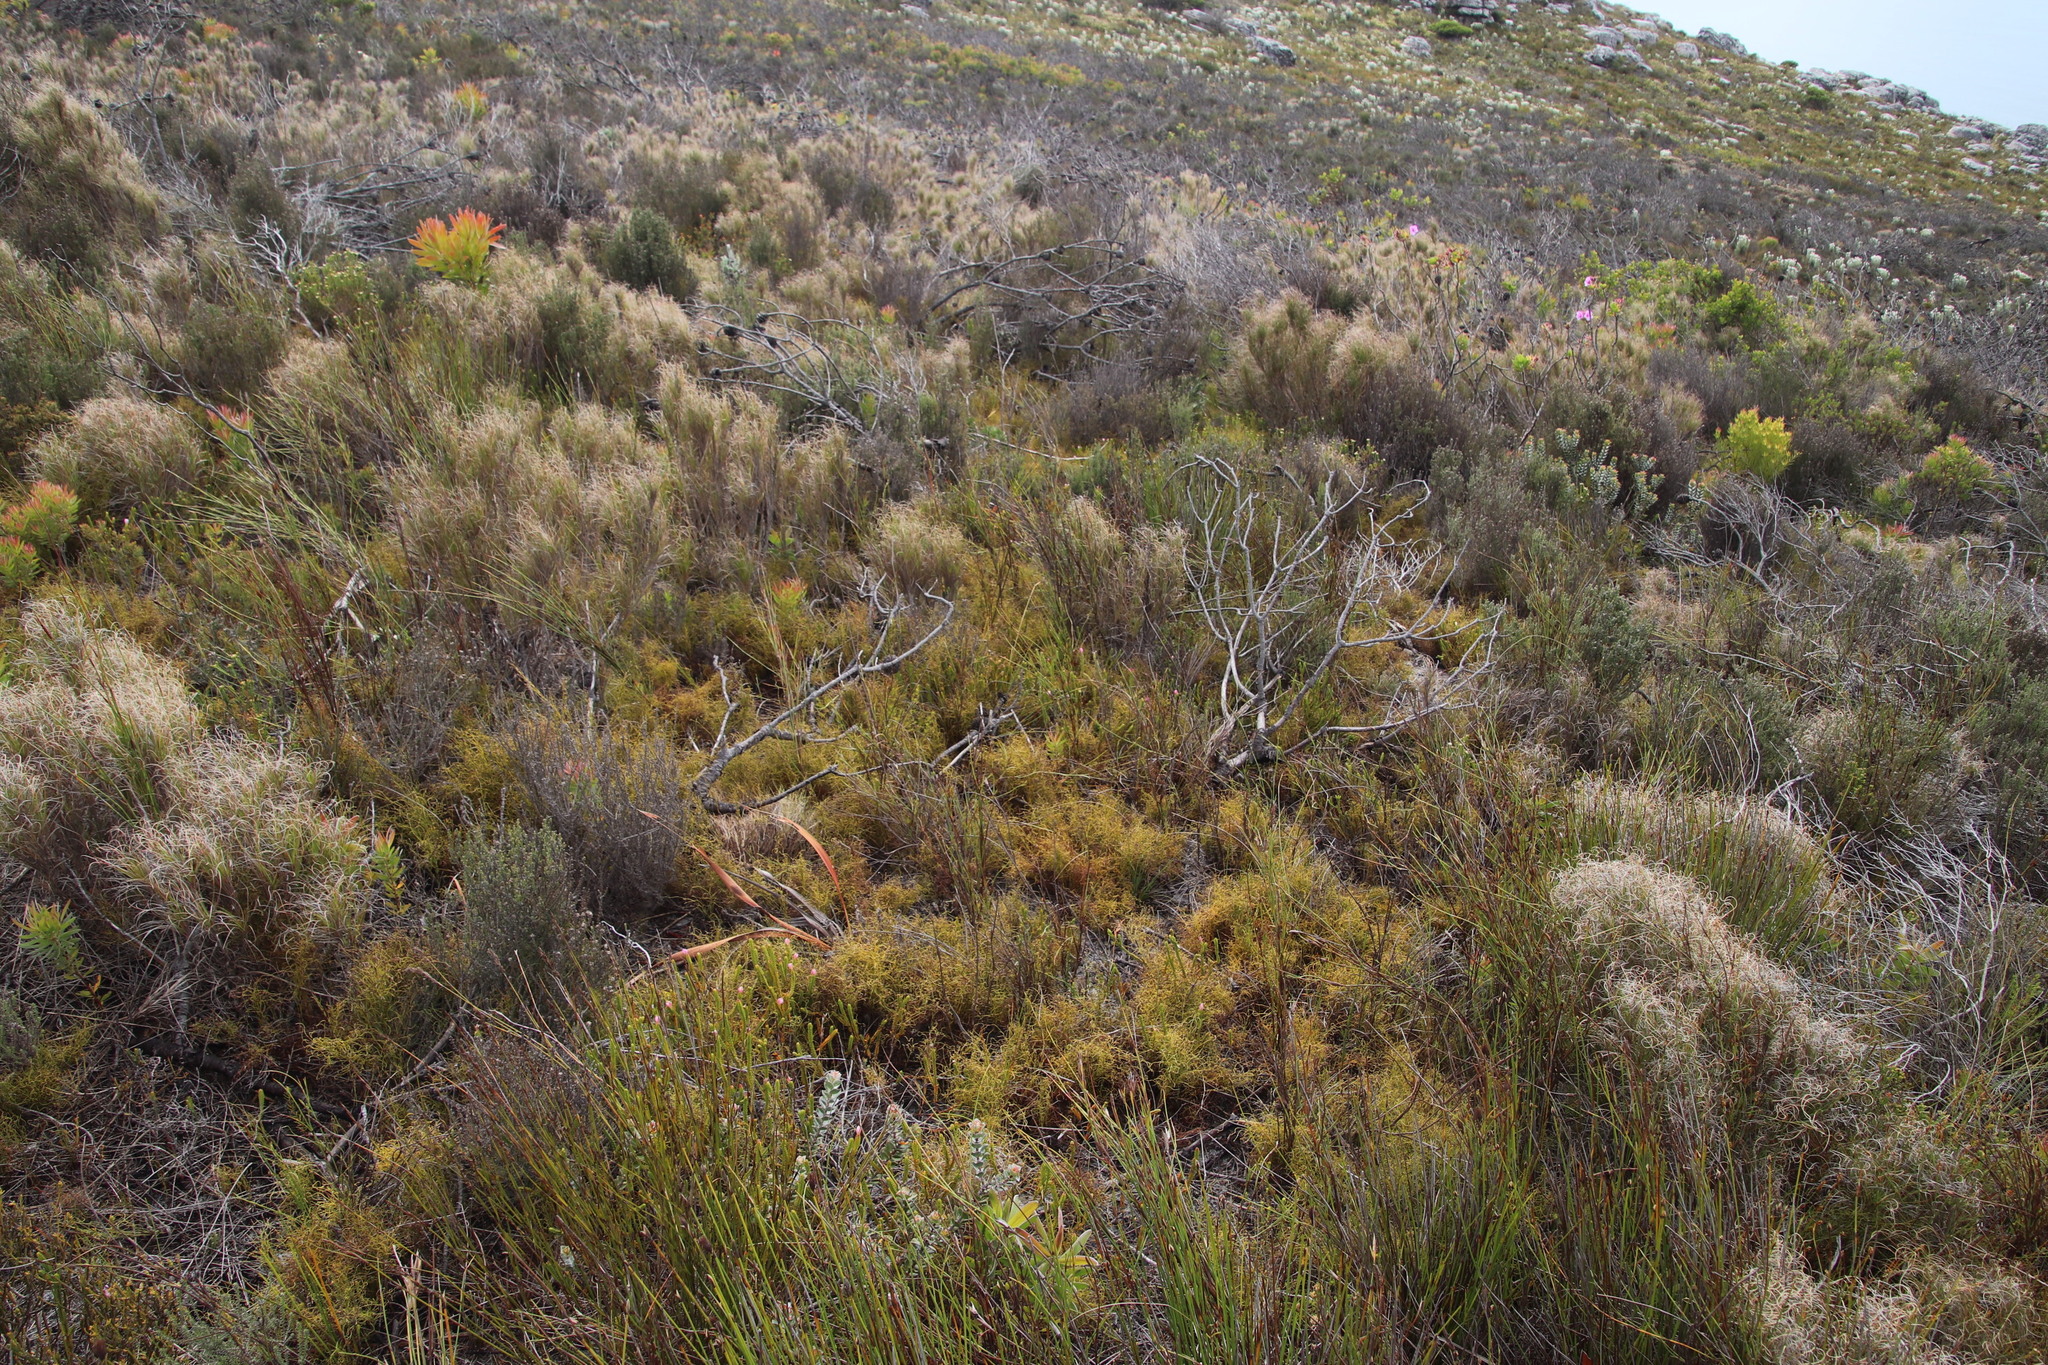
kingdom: Plantae
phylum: Tracheophyta
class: Liliopsida
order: Poales
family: Restionaceae
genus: Restio
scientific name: Restio cincinnatus
